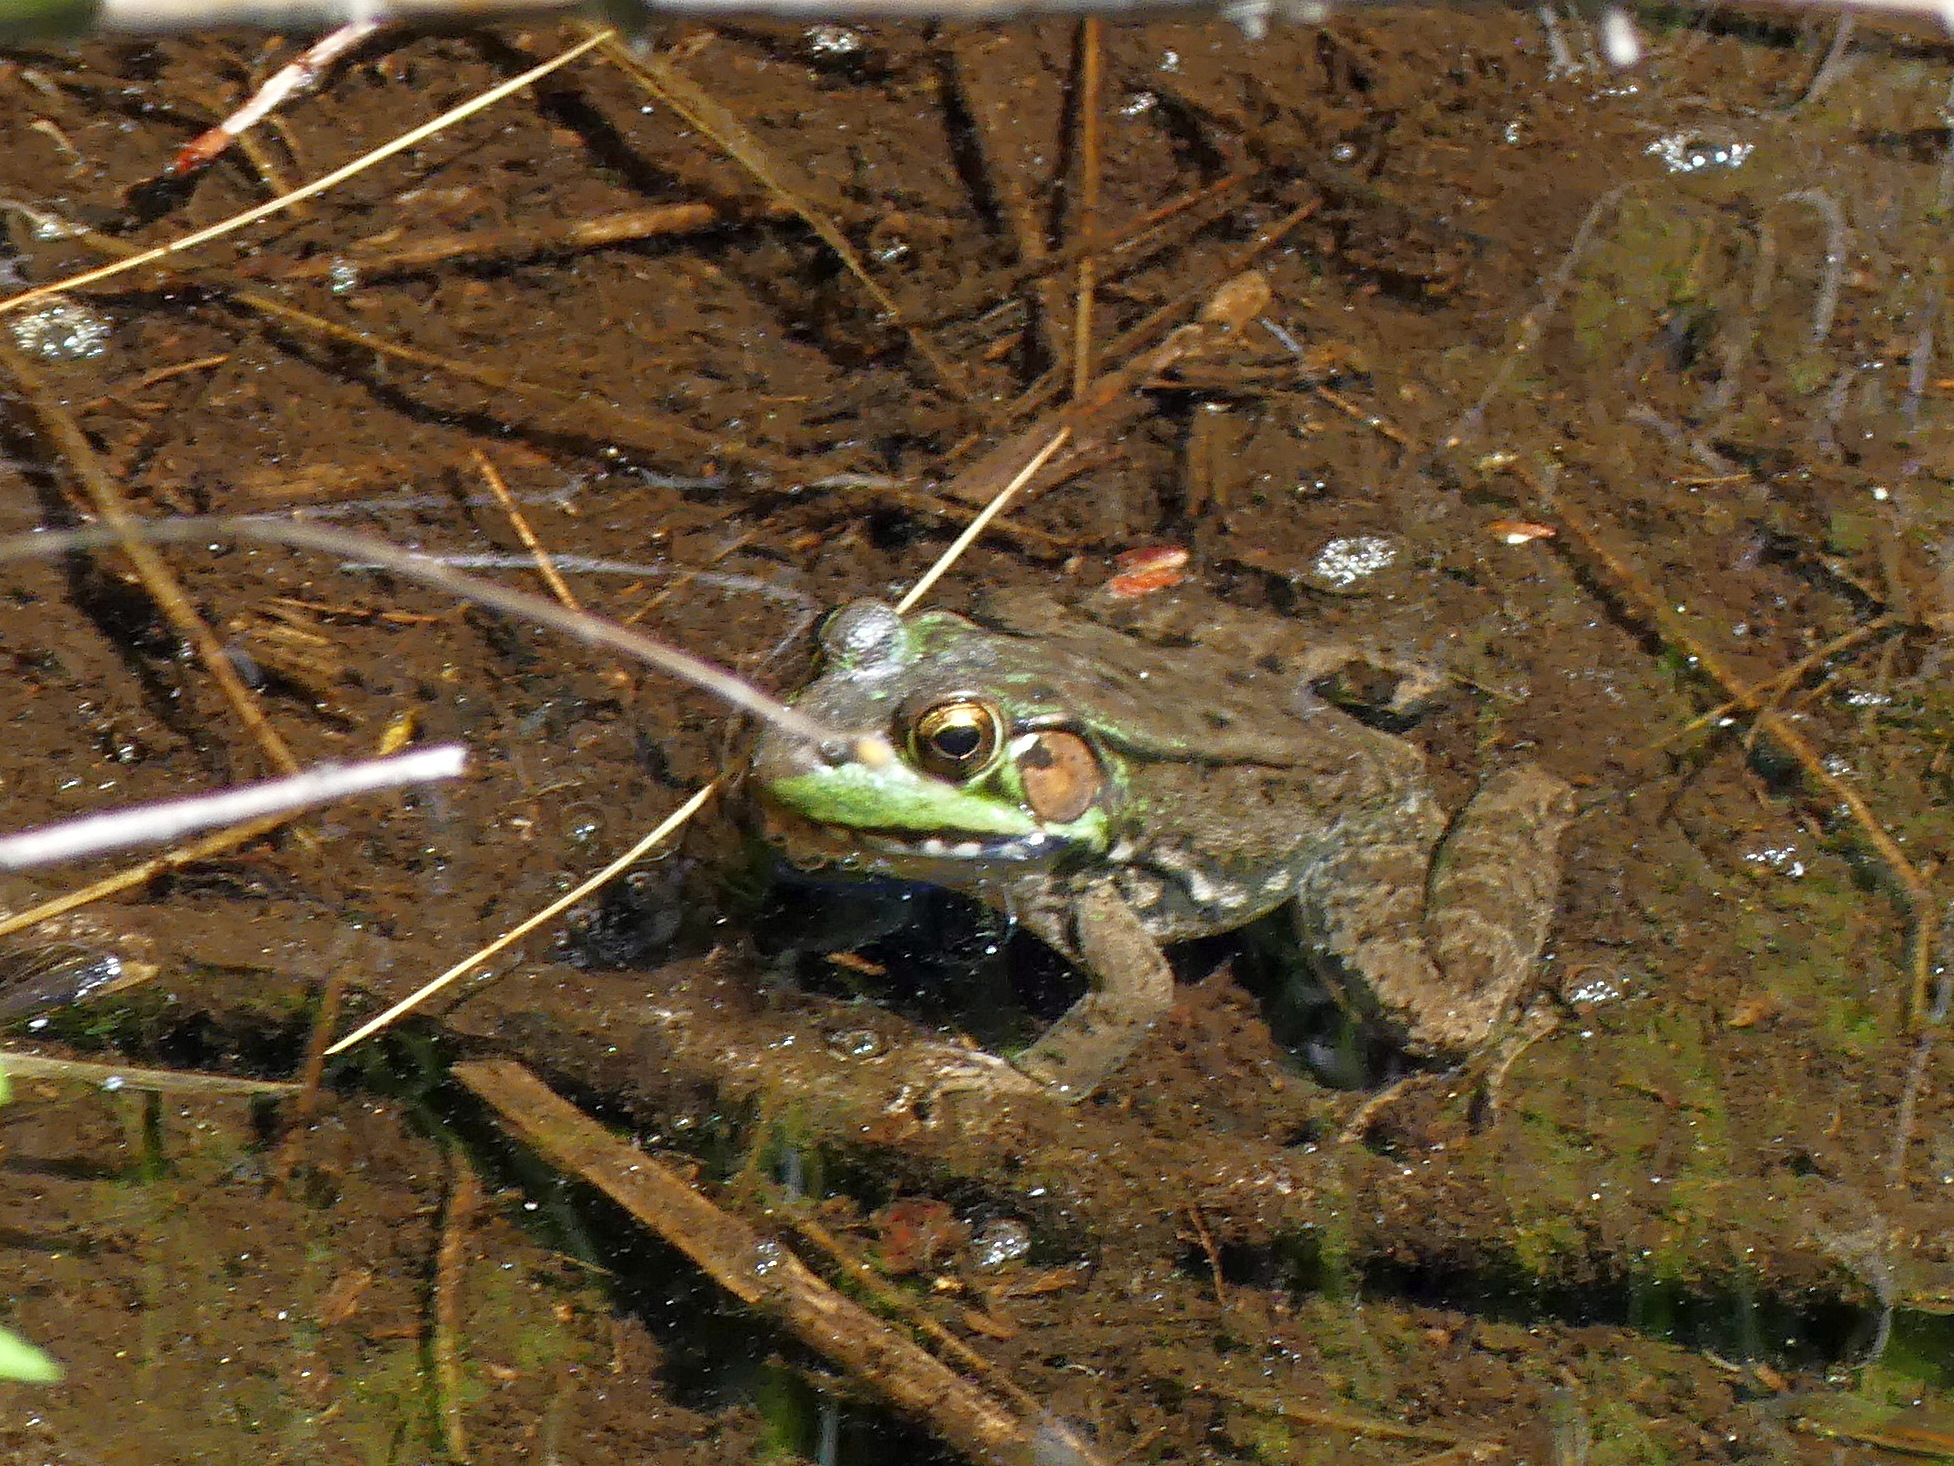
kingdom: Animalia
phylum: Chordata
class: Amphibia
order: Anura
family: Ranidae
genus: Lithobates
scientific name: Lithobates clamitans
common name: Green frog
